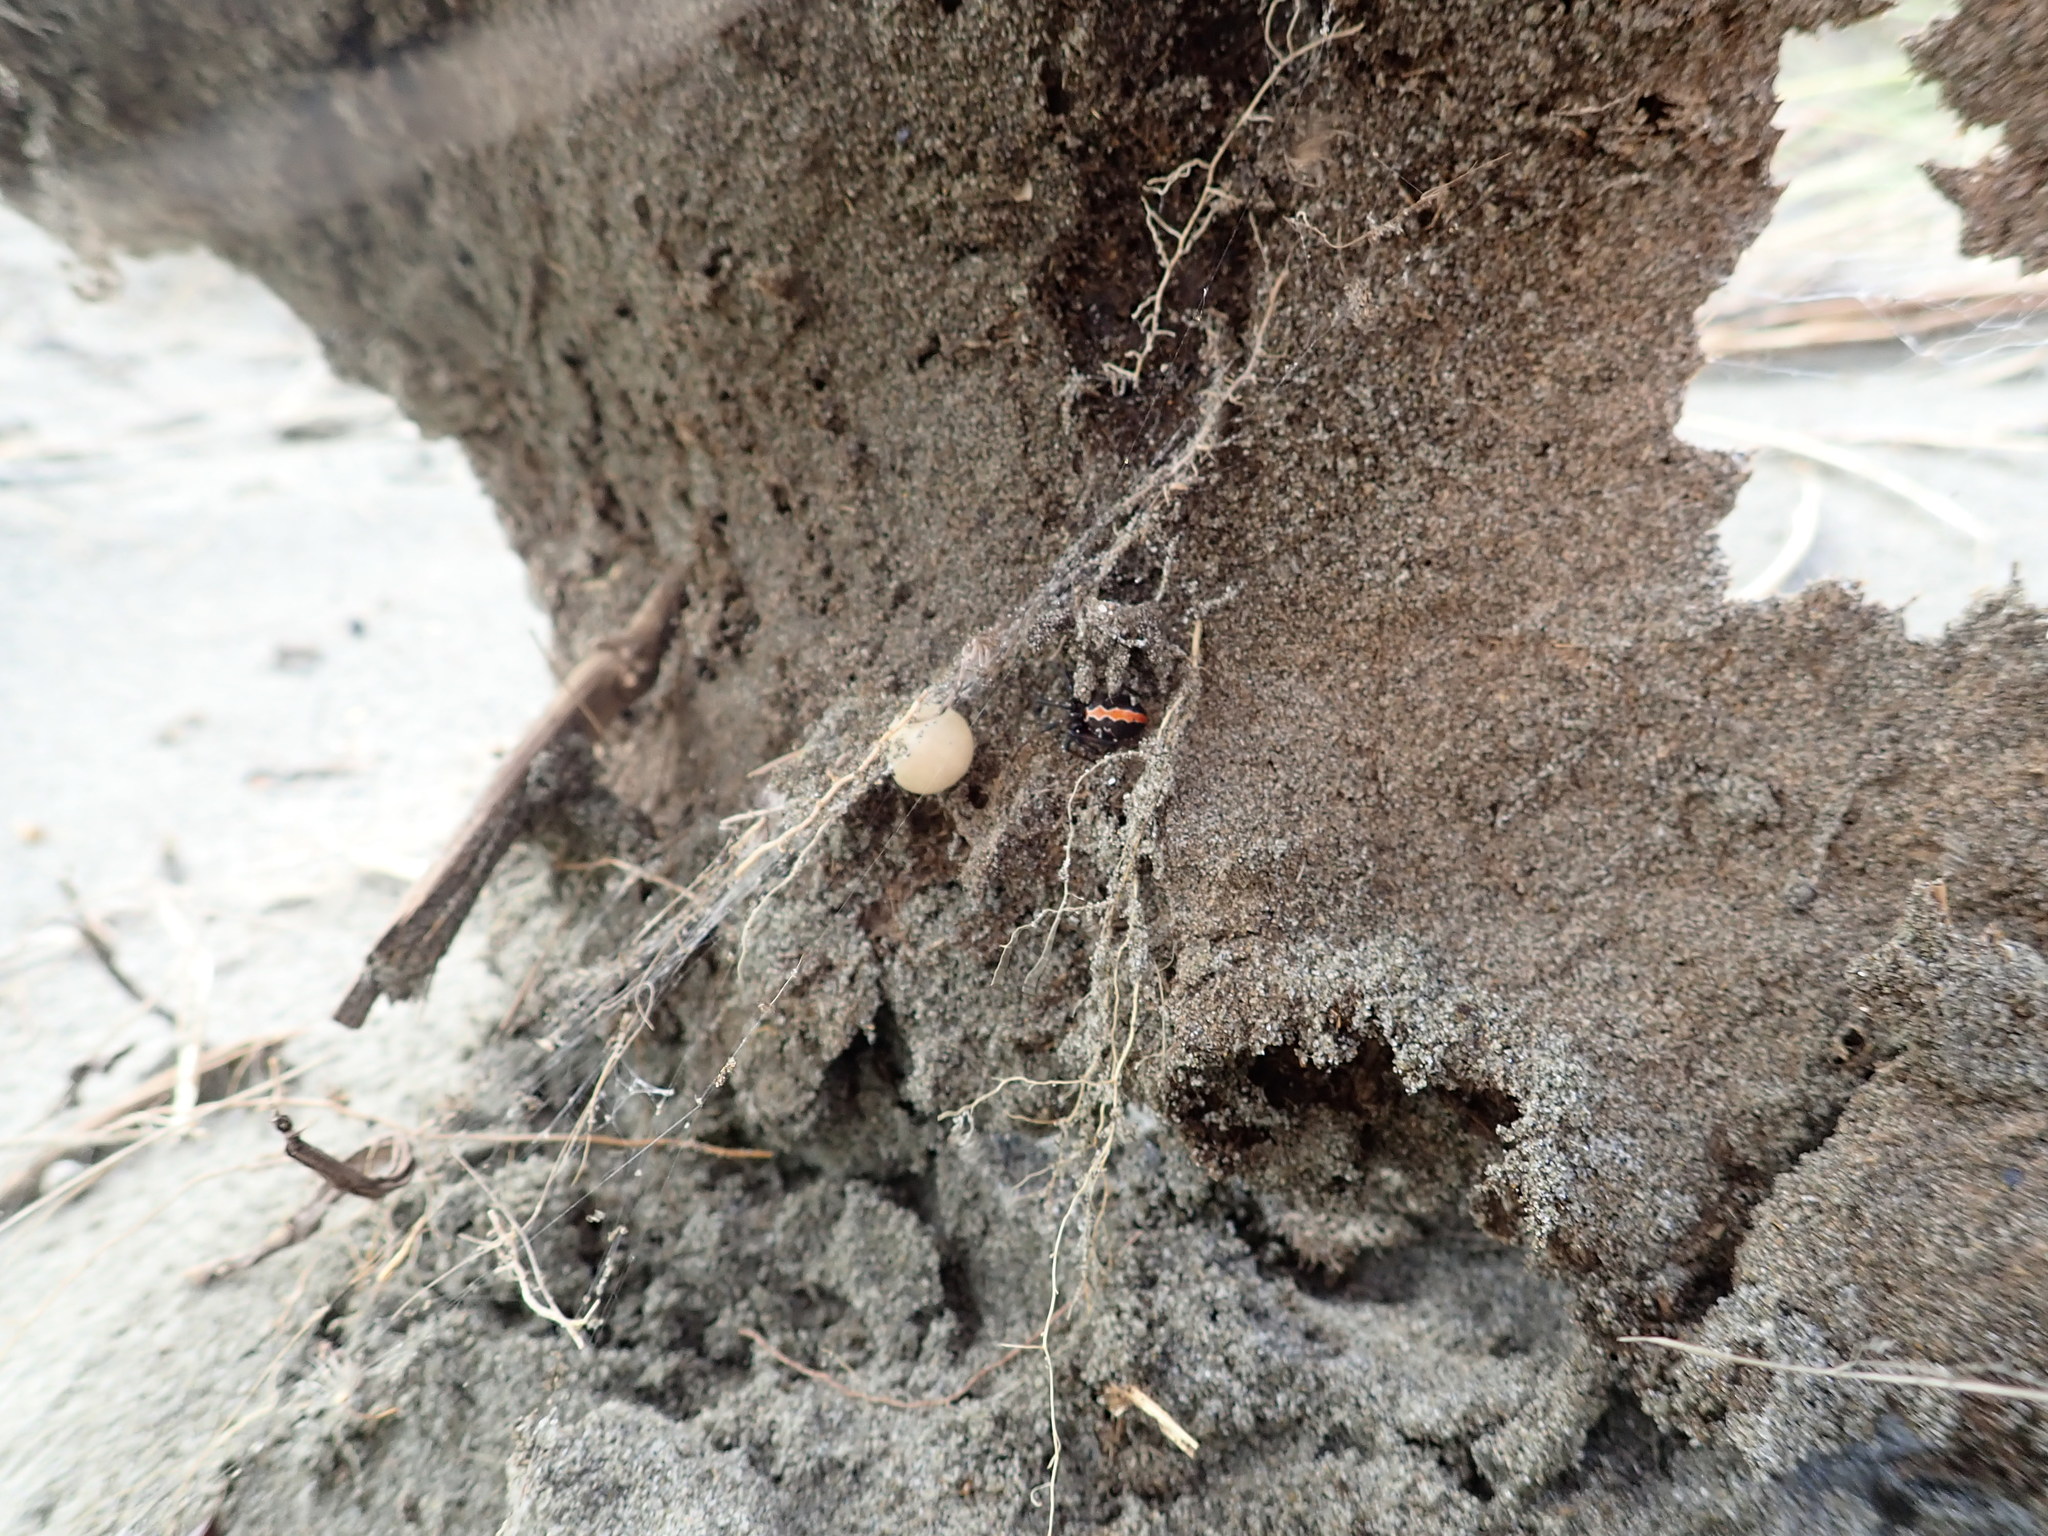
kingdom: Animalia
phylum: Arthropoda
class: Arachnida
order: Araneae
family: Theridiidae
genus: Latrodectus
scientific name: Latrodectus katipo
